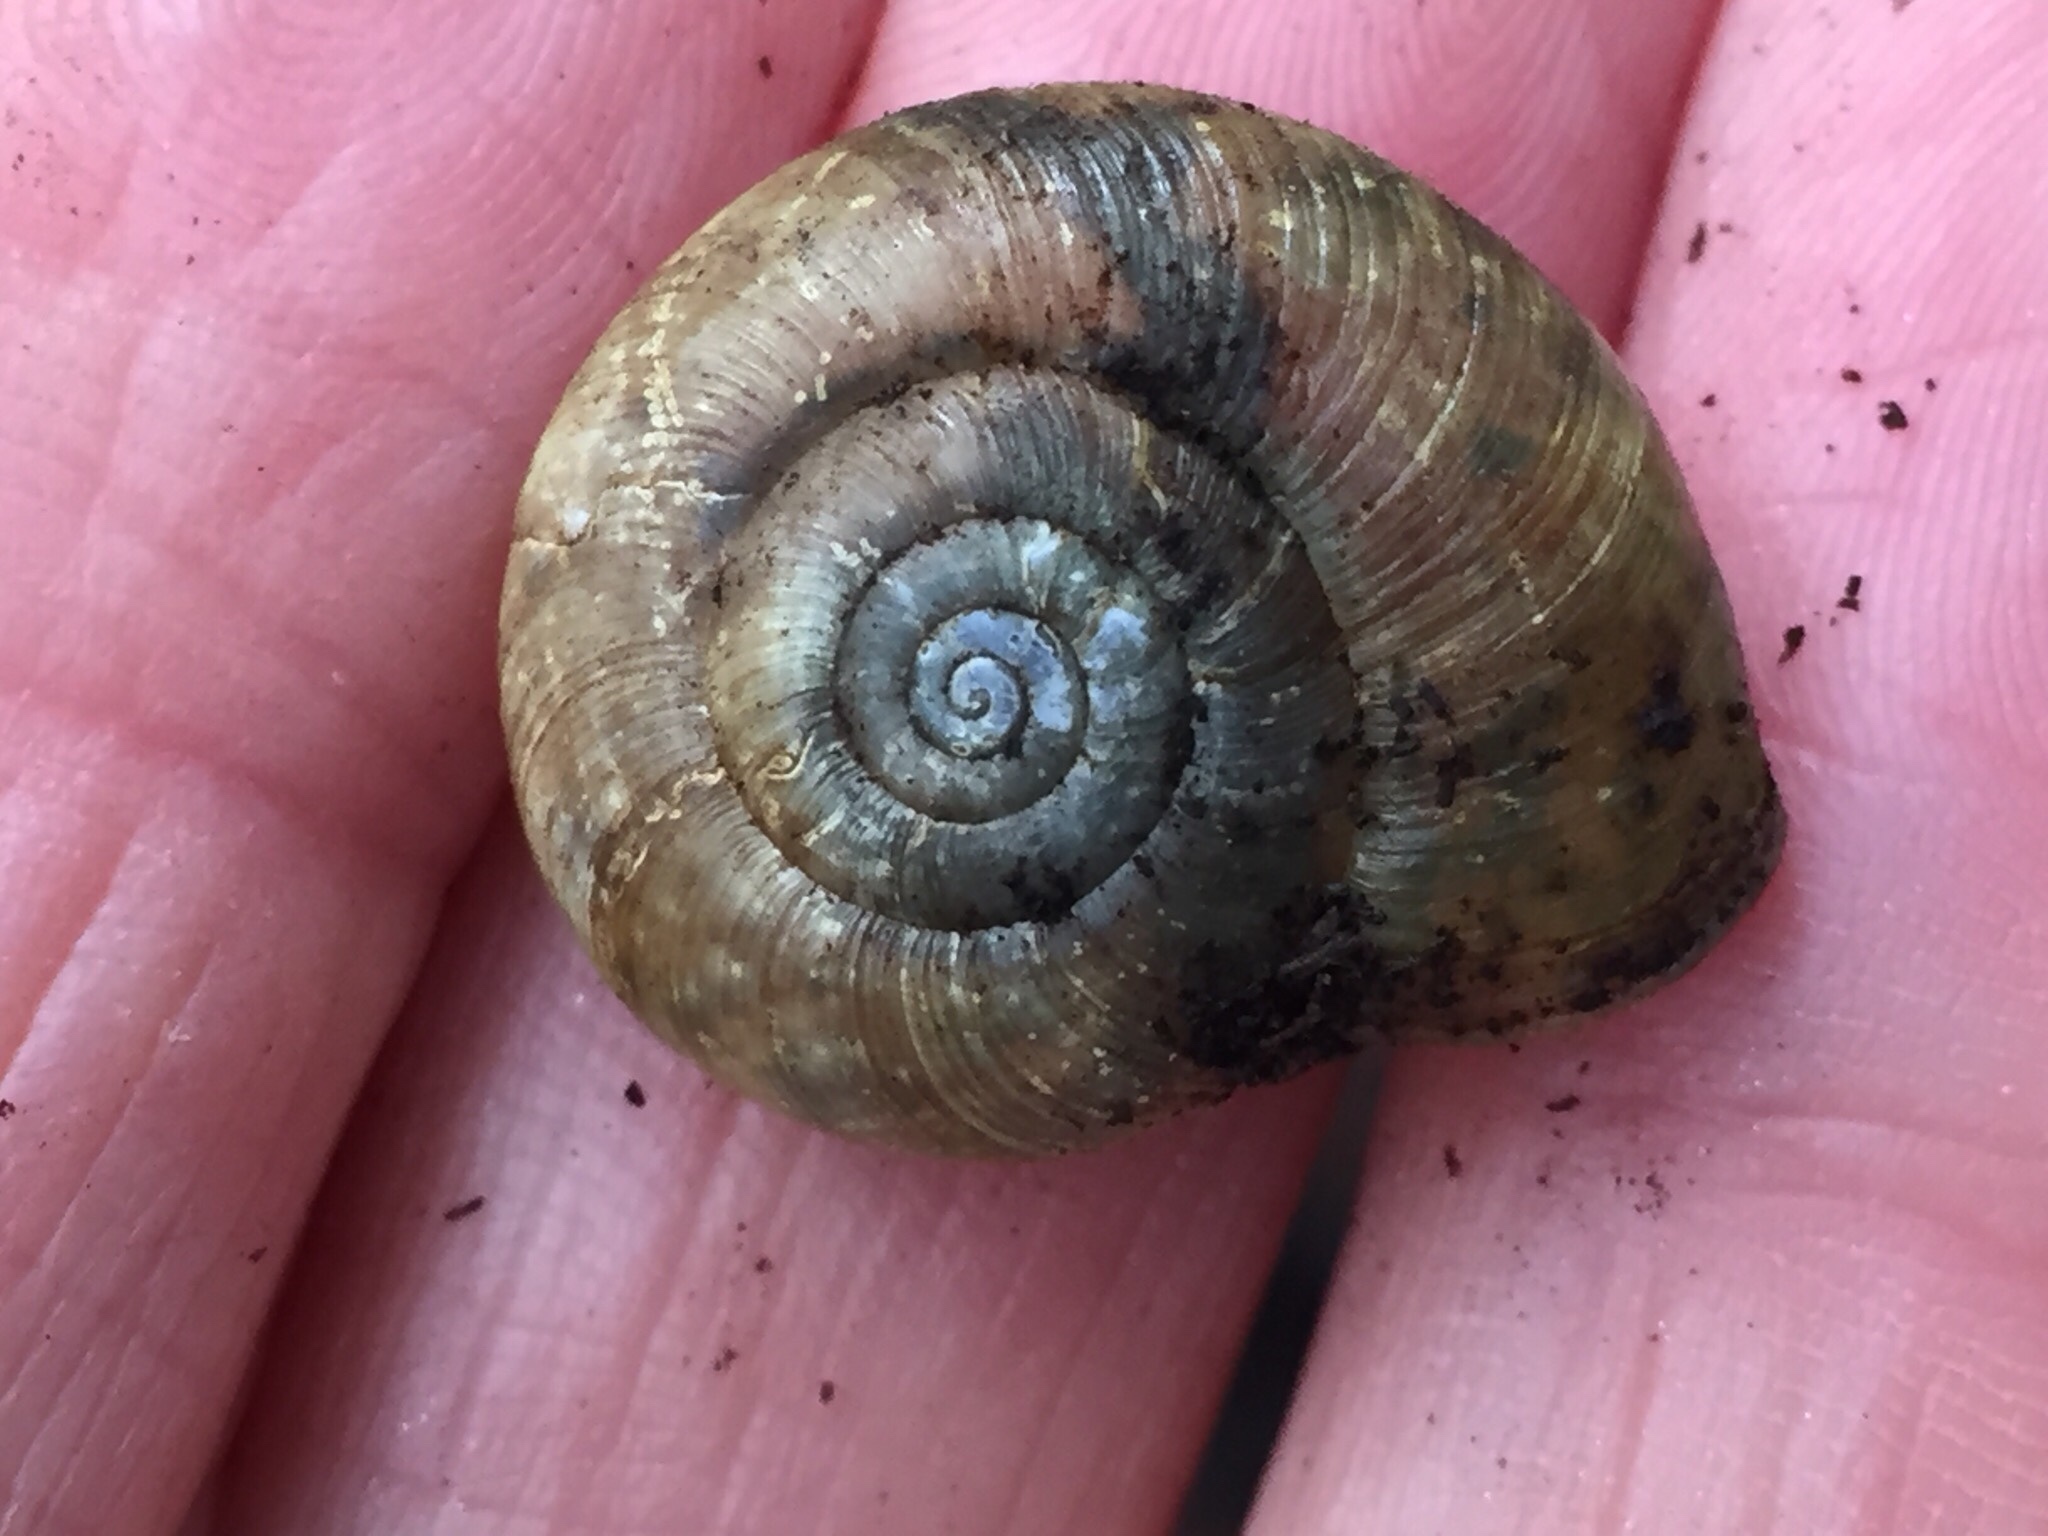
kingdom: Animalia
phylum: Mollusca
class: Gastropoda
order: Stylommatophora
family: Haplotrematidae
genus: Haplotrema
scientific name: Haplotrema minimum
